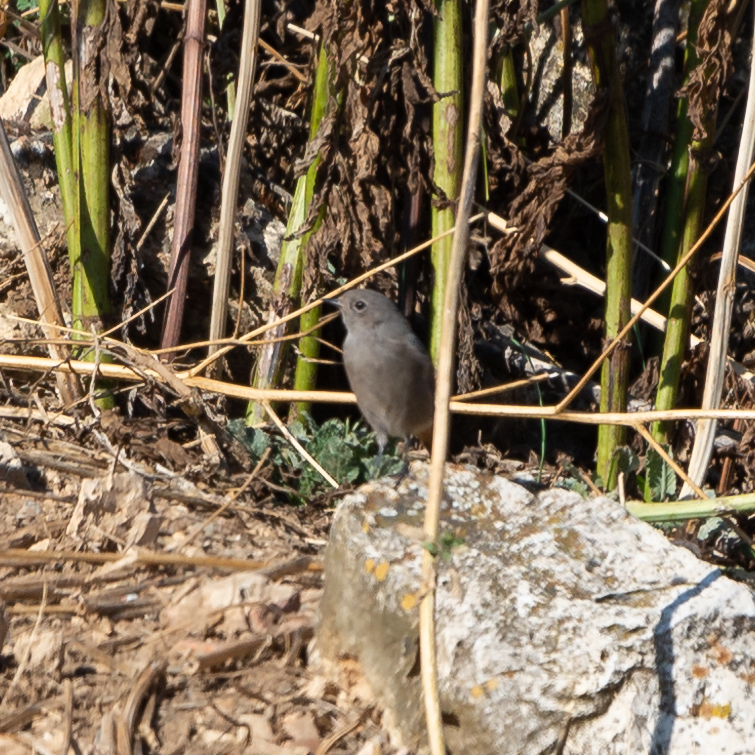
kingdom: Animalia
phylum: Chordata
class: Aves
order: Passeriformes
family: Muscicapidae
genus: Phoenicurus
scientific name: Phoenicurus ochruros
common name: Black redstart
